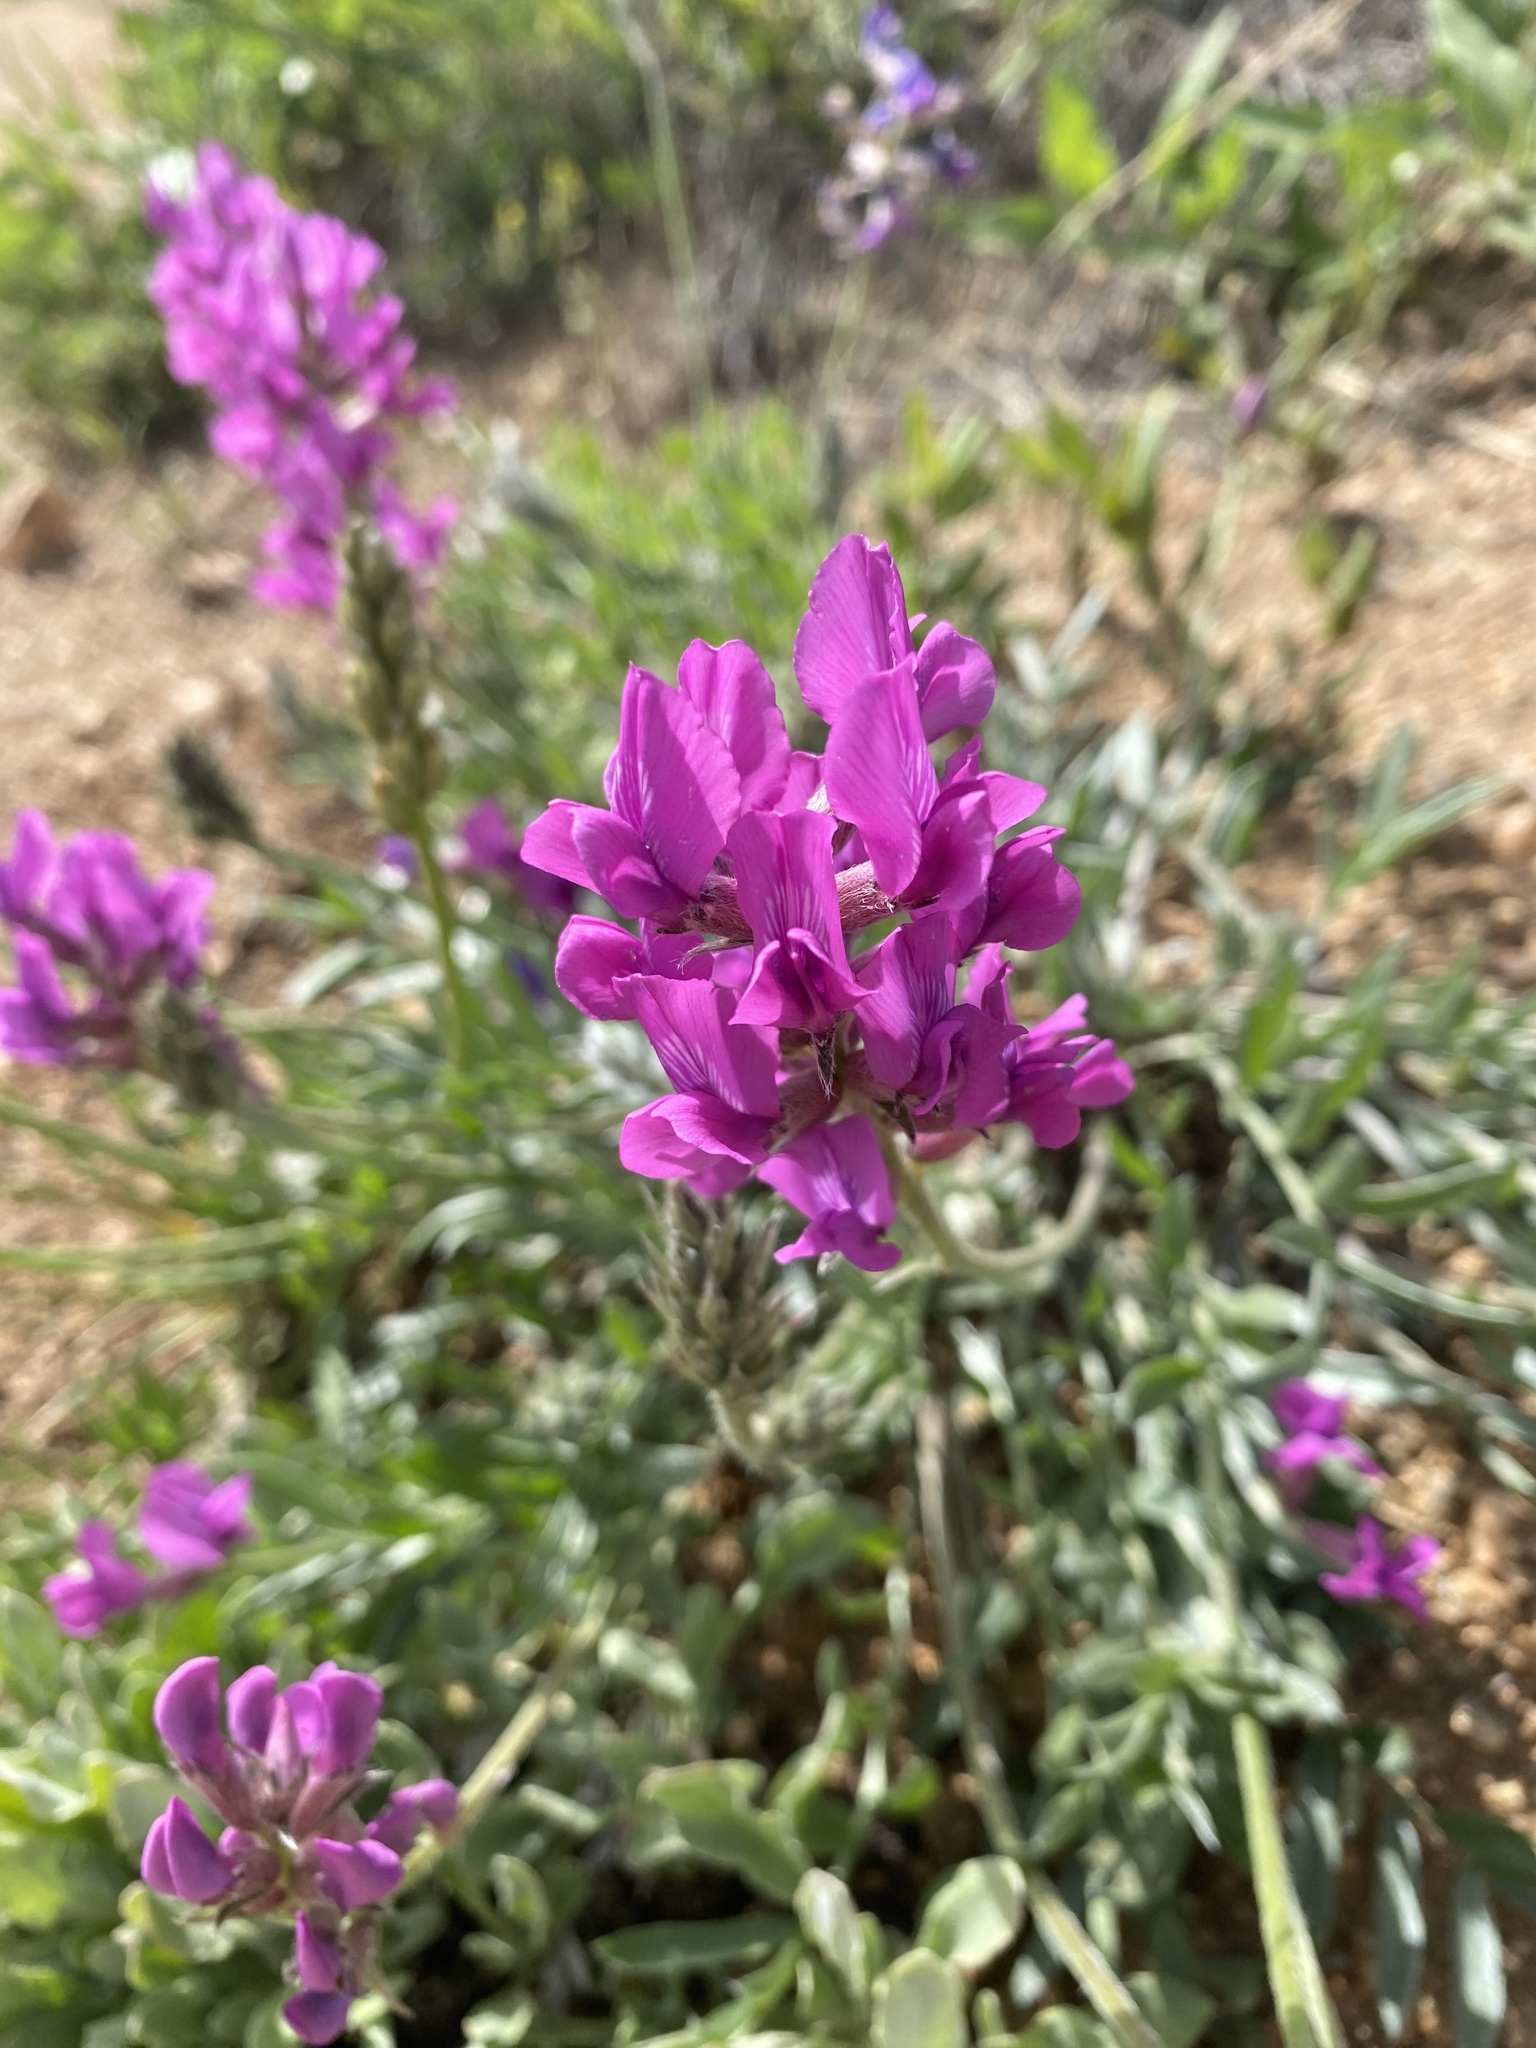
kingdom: Plantae
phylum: Tracheophyta
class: Magnoliopsida
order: Fabales
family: Fabaceae
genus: Oxytropis
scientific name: Oxytropis lambertii
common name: Purple locoweed
